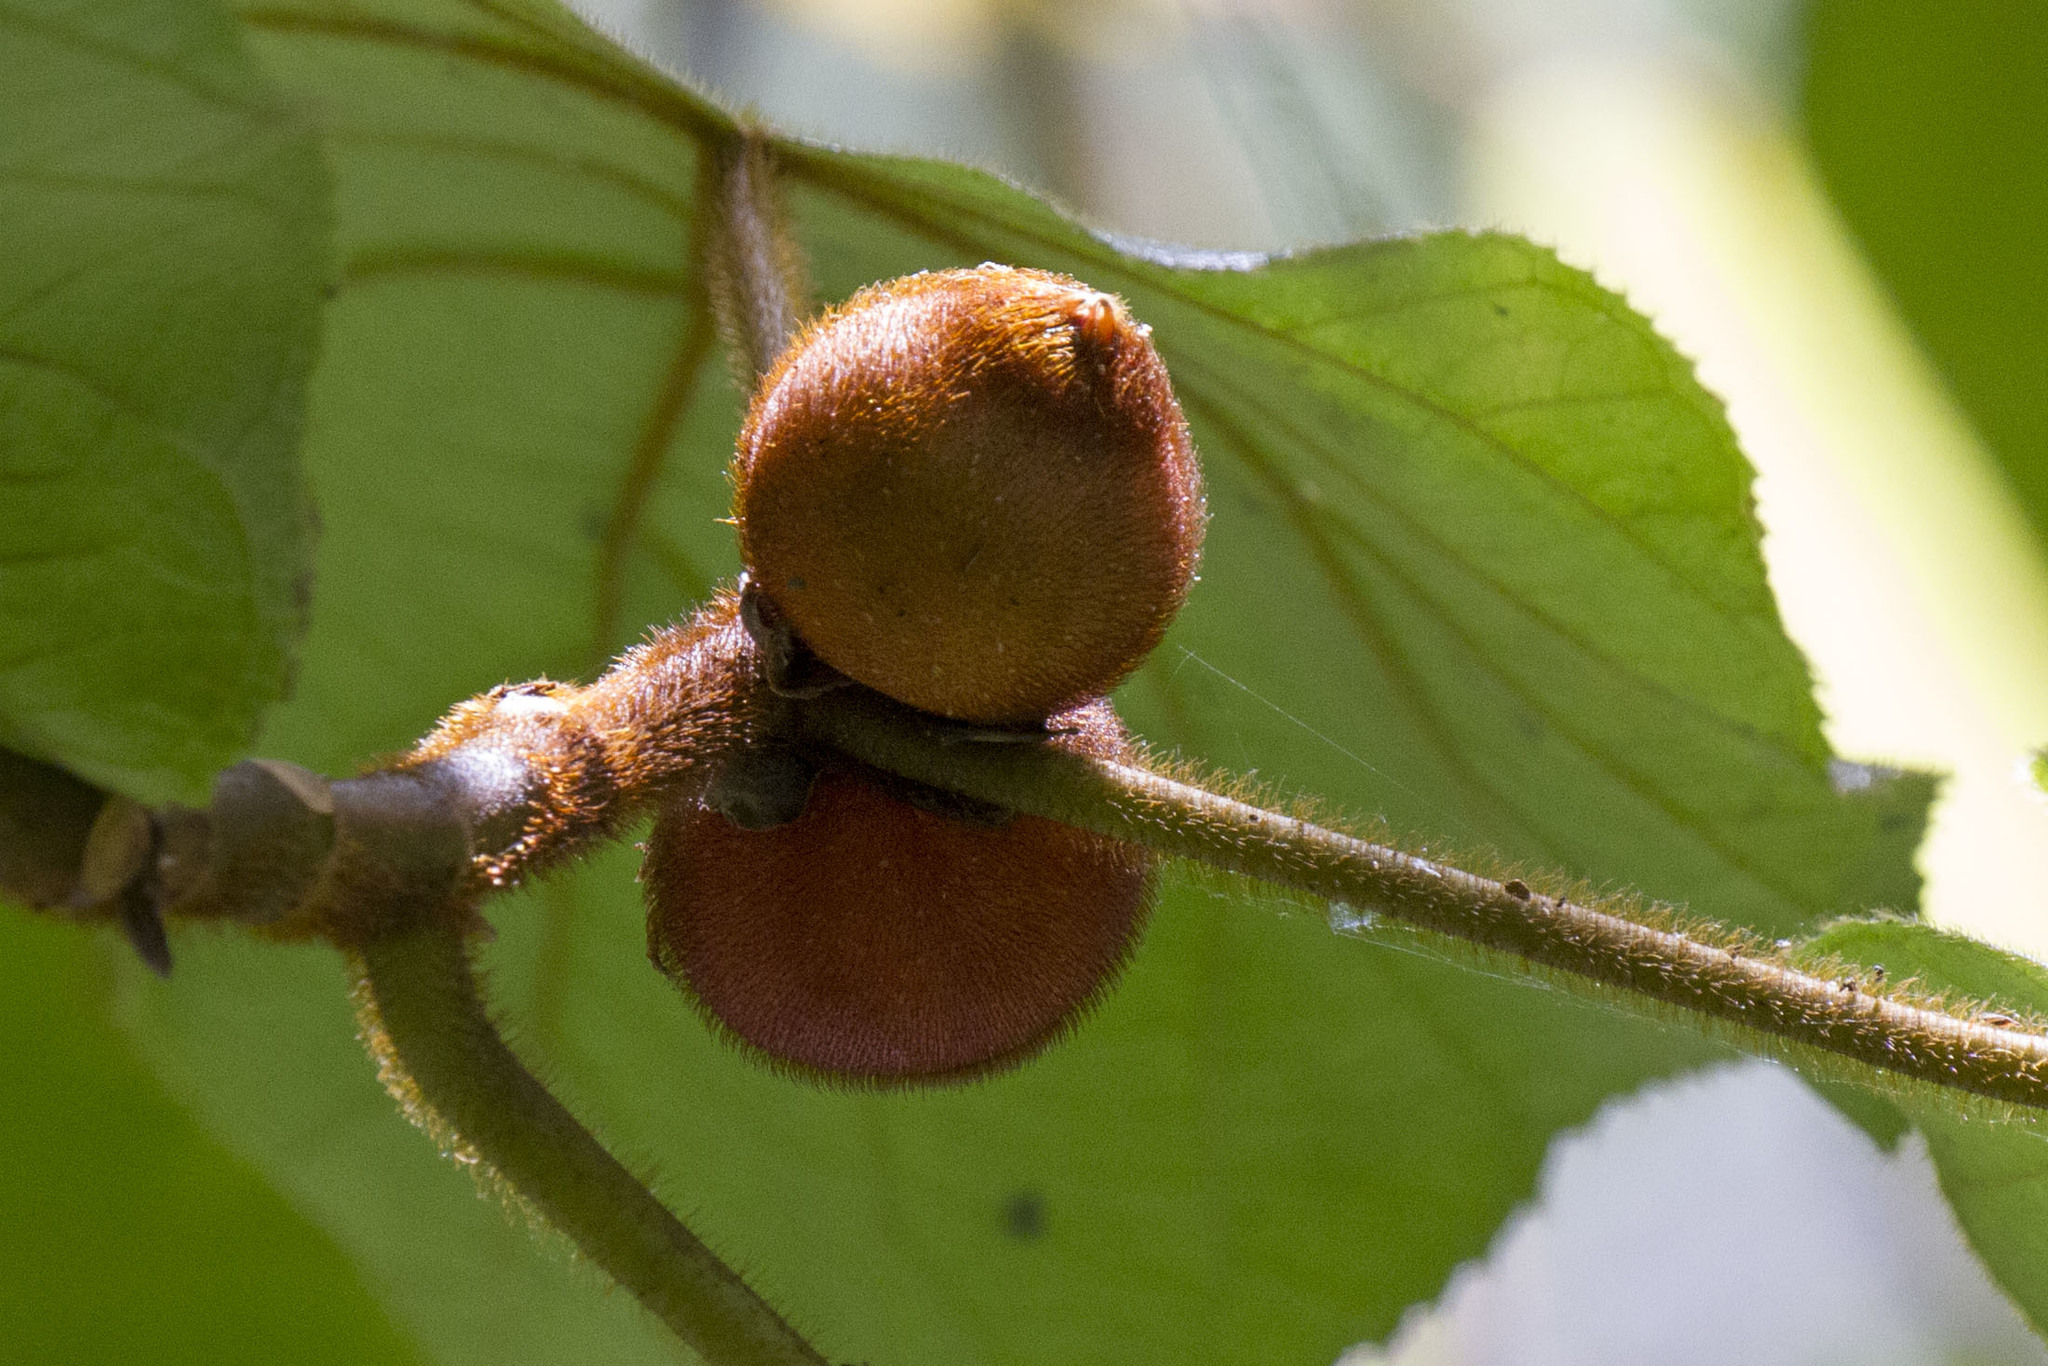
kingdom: Plantae
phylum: Tracheophyta
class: Magnoliopsida
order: Rosales
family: Moraceae
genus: Ficus
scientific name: Ficus simplicissima
